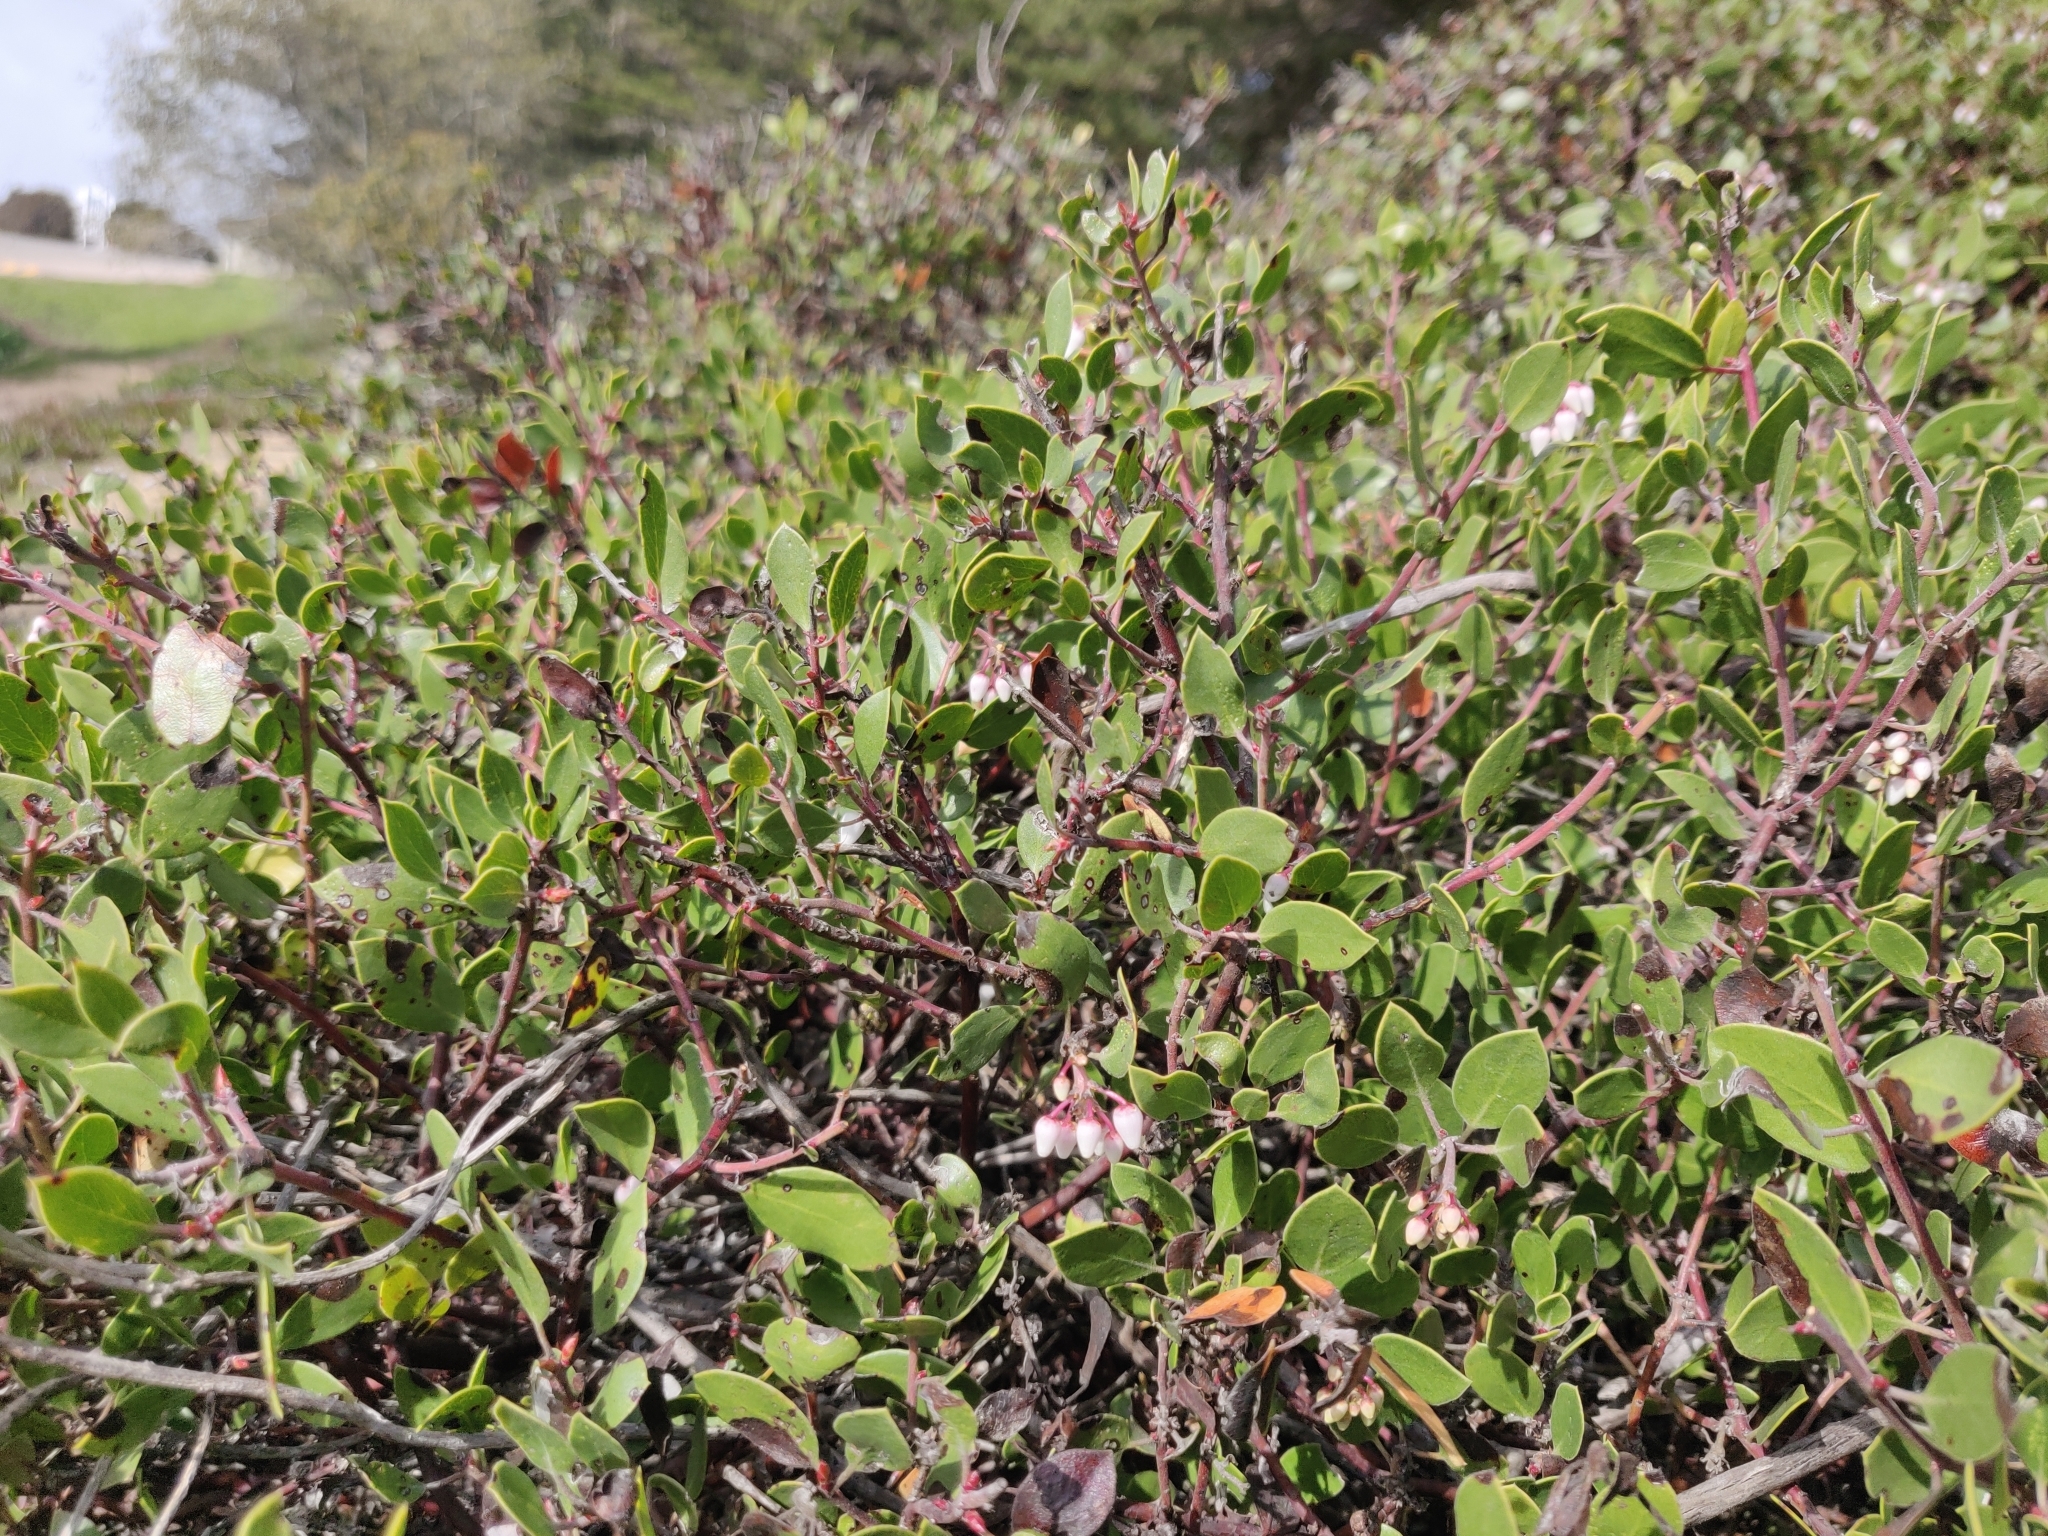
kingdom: Plantae
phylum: Tracheophyta
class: Magnoliopsida
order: Ericales
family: Ericaceae
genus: Arctostaphylos
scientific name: Arctostaphylos hookeri
